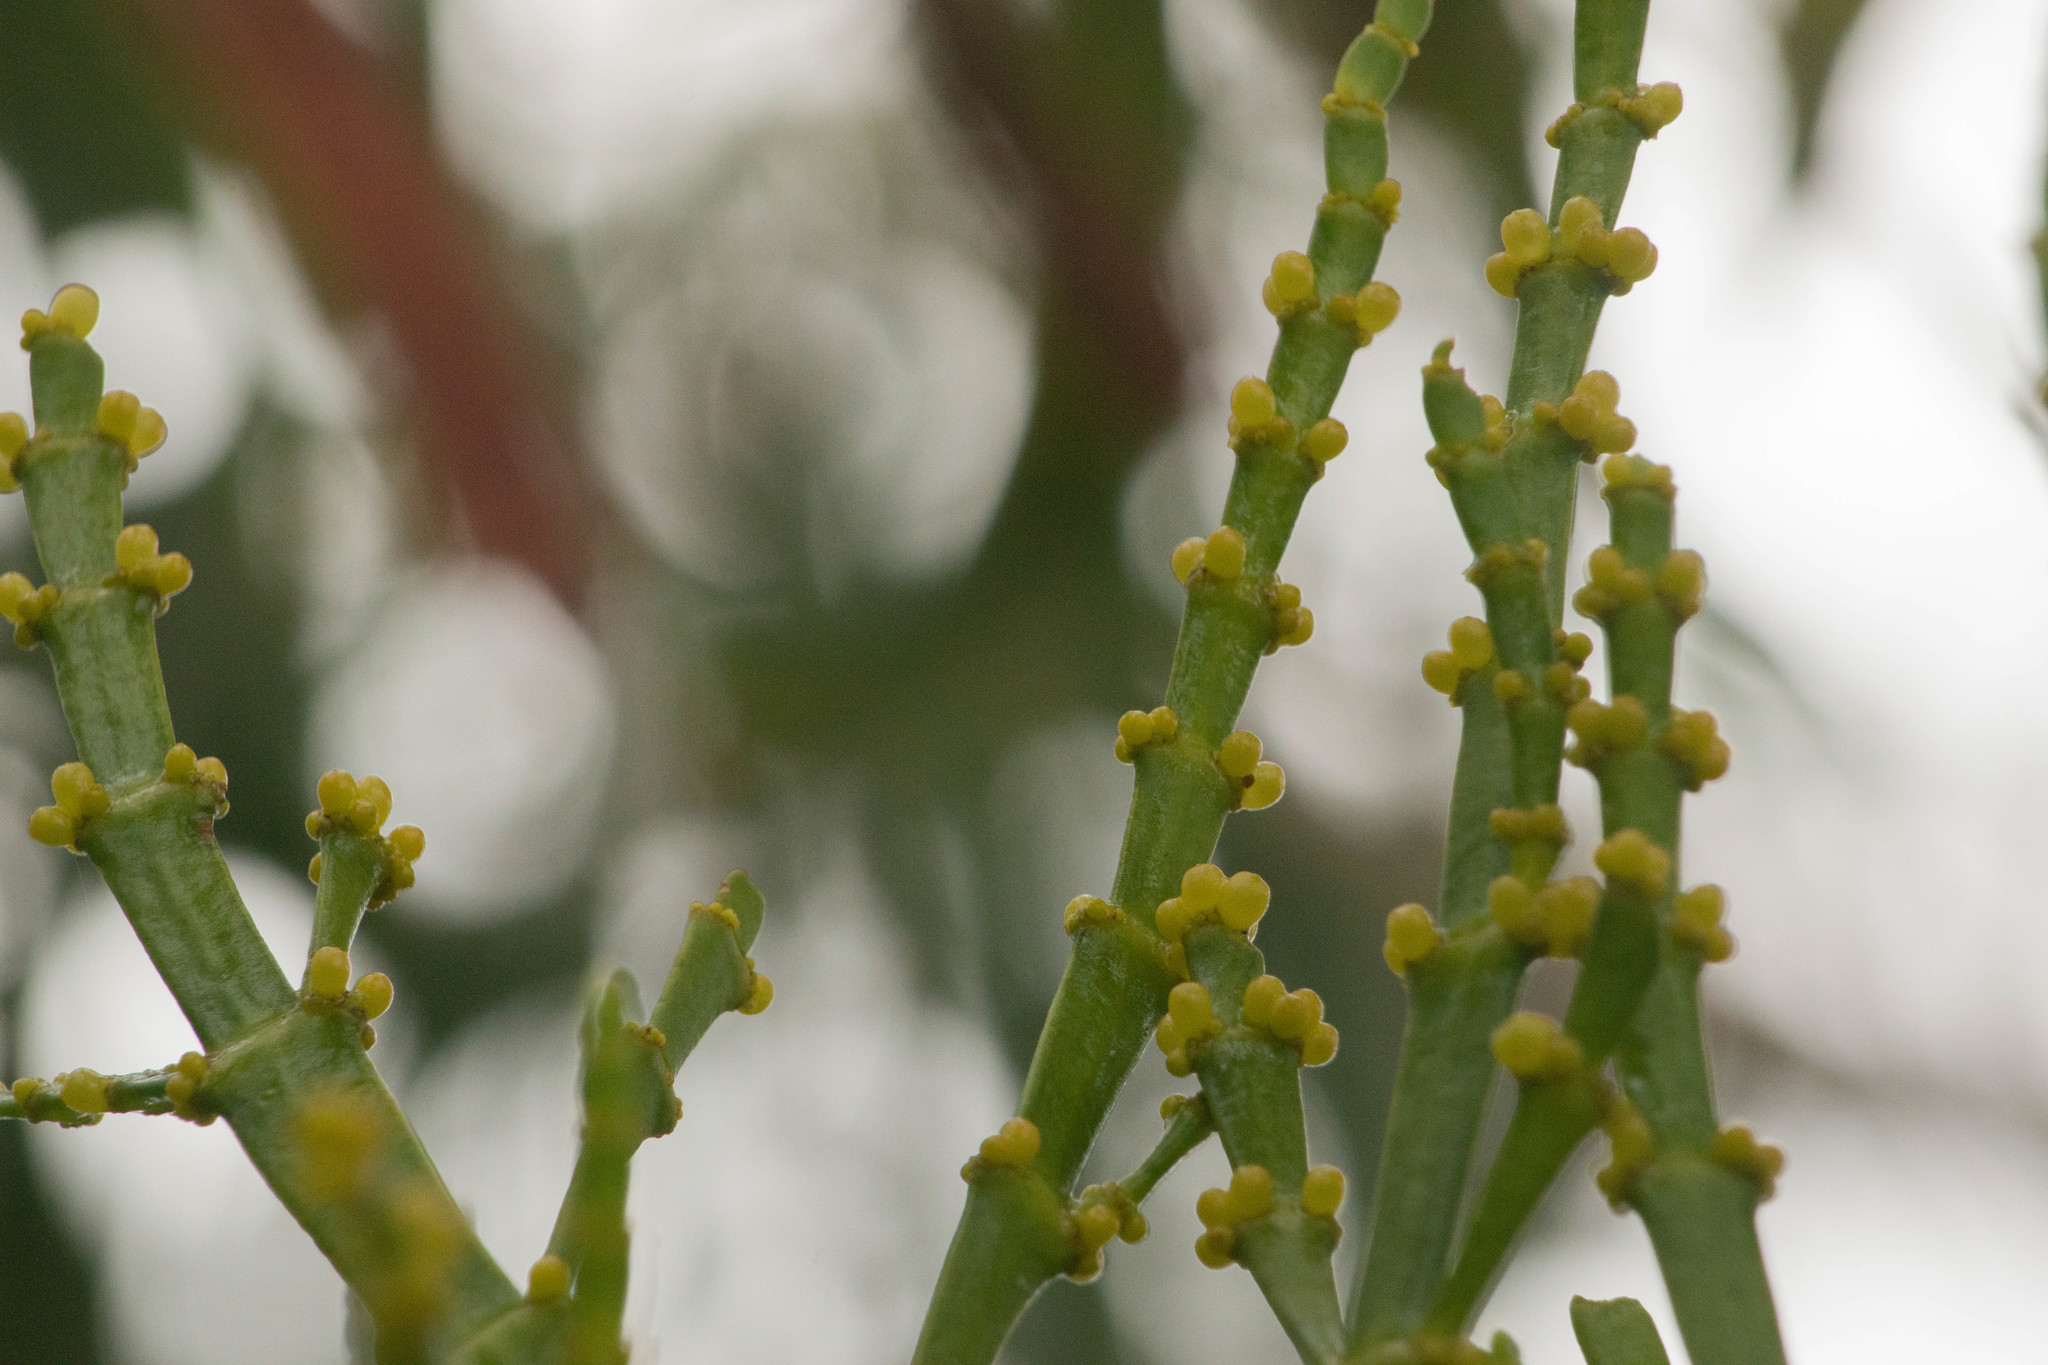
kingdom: Plantae
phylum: Tracheophyta
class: Magnoliopsida
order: Santalales
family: Viscaceae
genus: Korthalsella
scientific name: Korthalsella complanata
